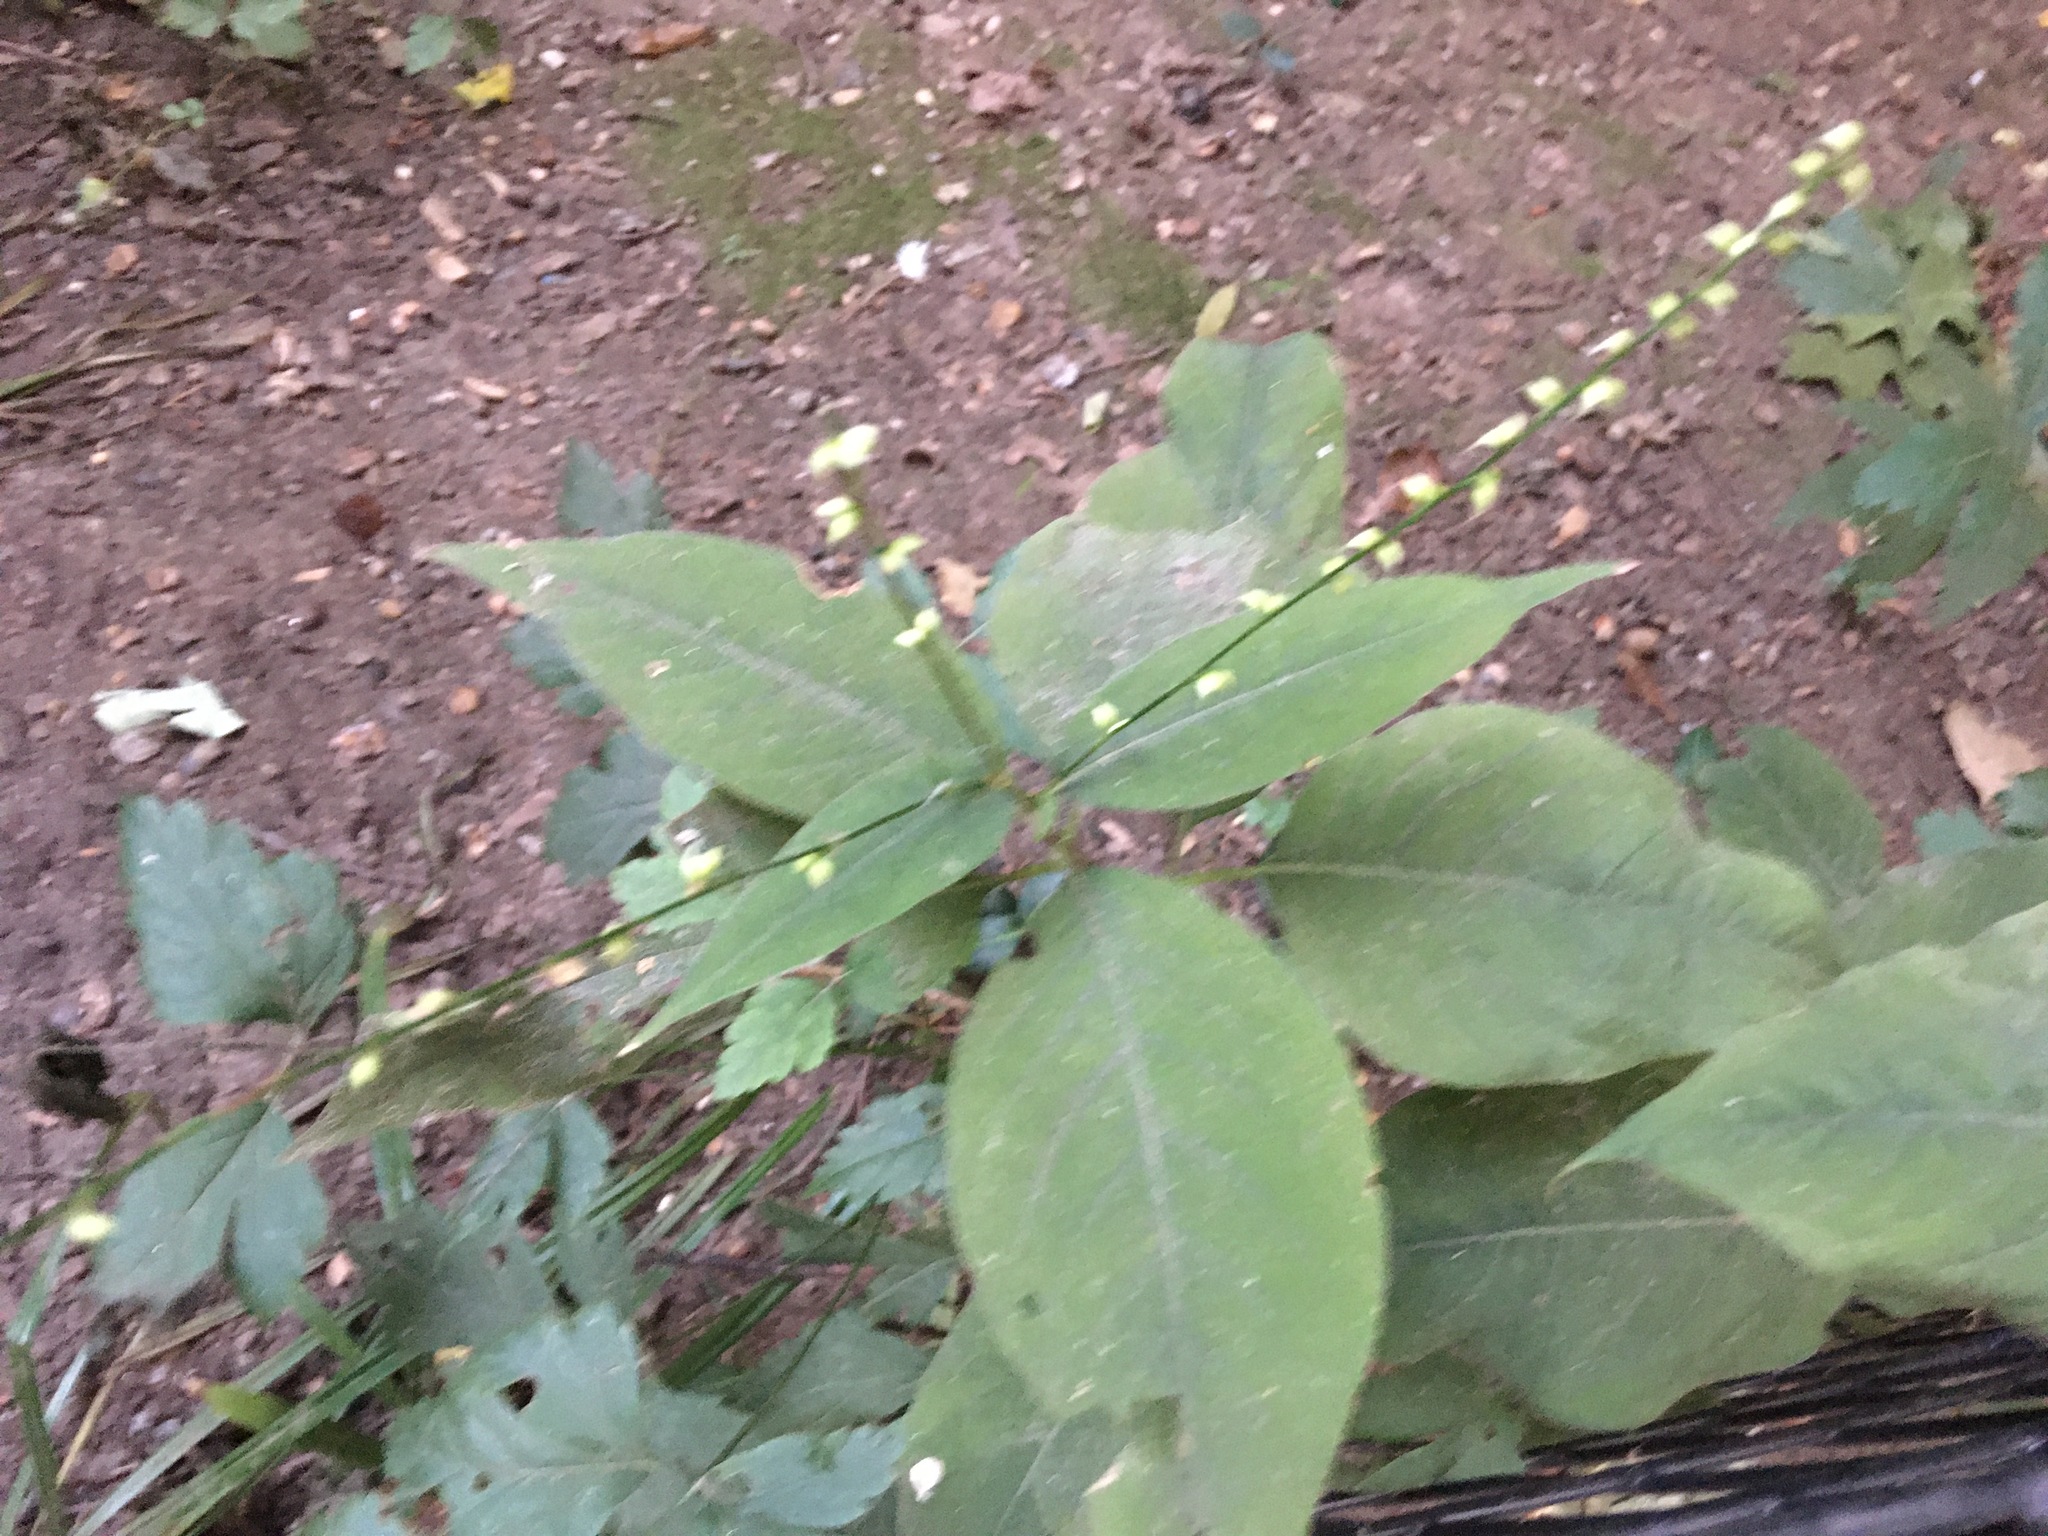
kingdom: Plantae
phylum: Tracheophyta
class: Magnoliopsida
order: Caryophyllales
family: Polygonaceae
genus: Persicaria
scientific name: Persicaria virginiana
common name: Jumpseed
